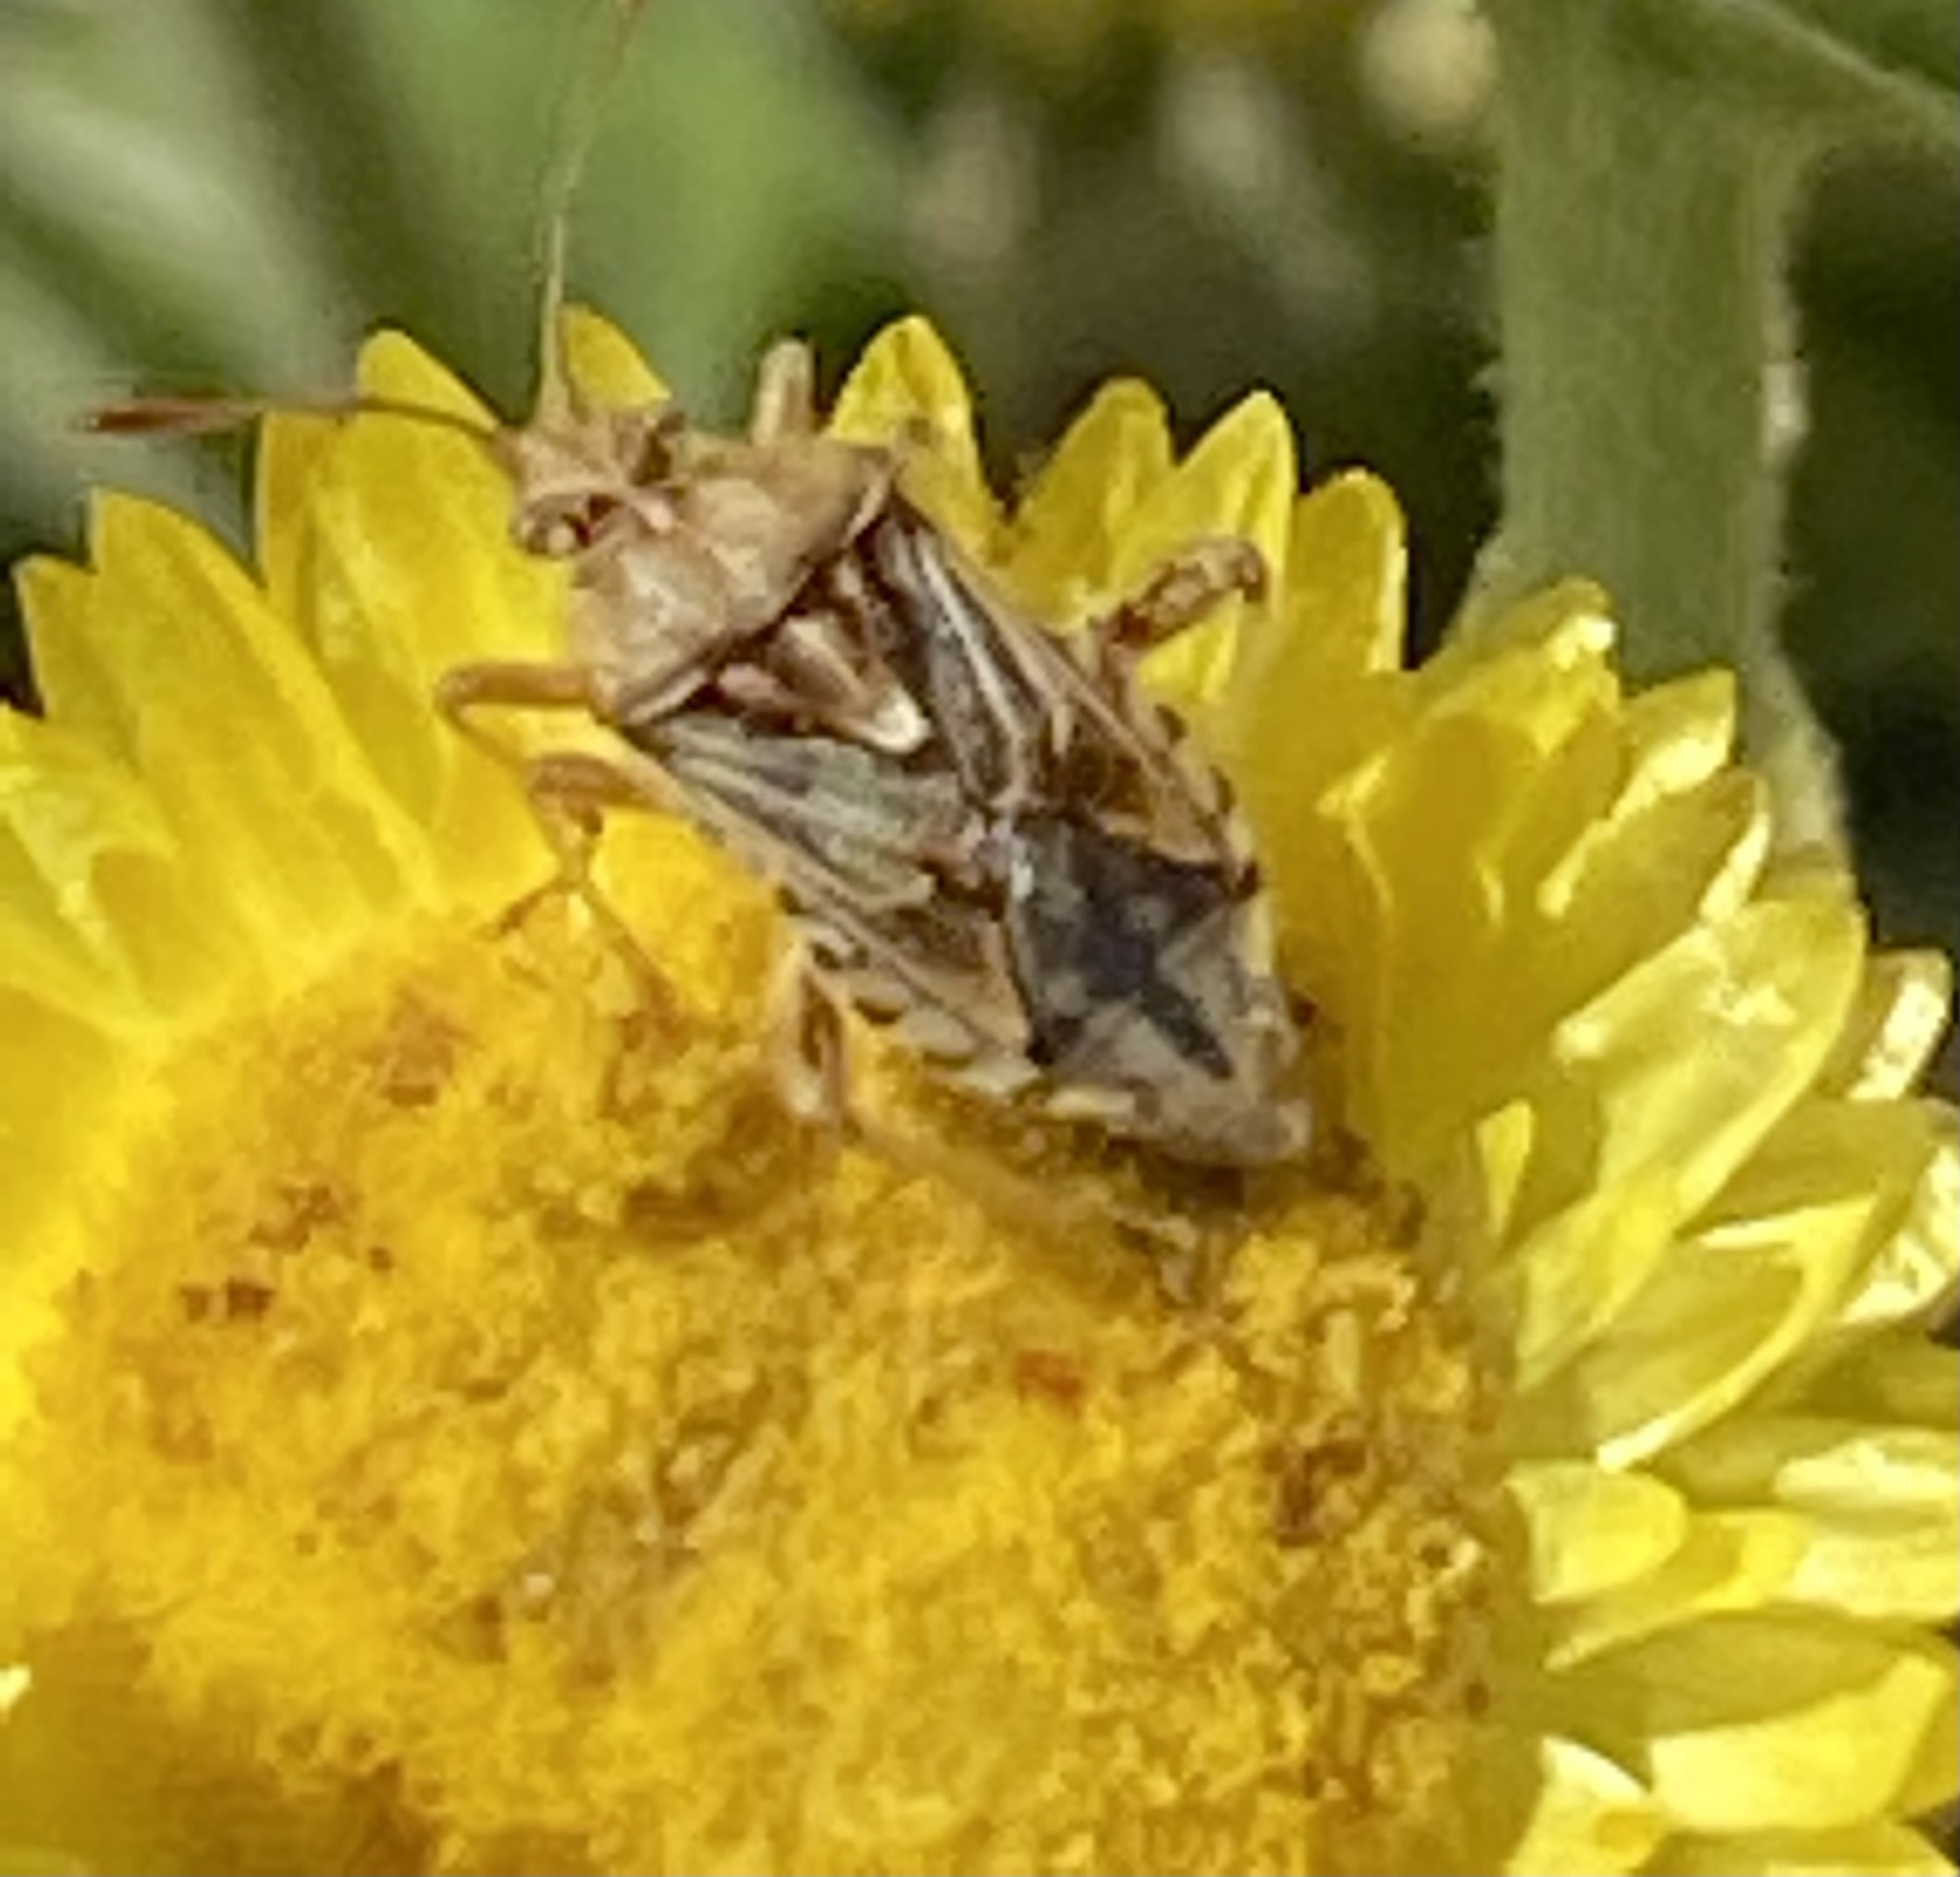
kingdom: Animalia
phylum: Arthropoda
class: Insecta
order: Hemiptera
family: Rhopalidae
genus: Stictopleurus
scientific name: Stictopleurus scutellaris
